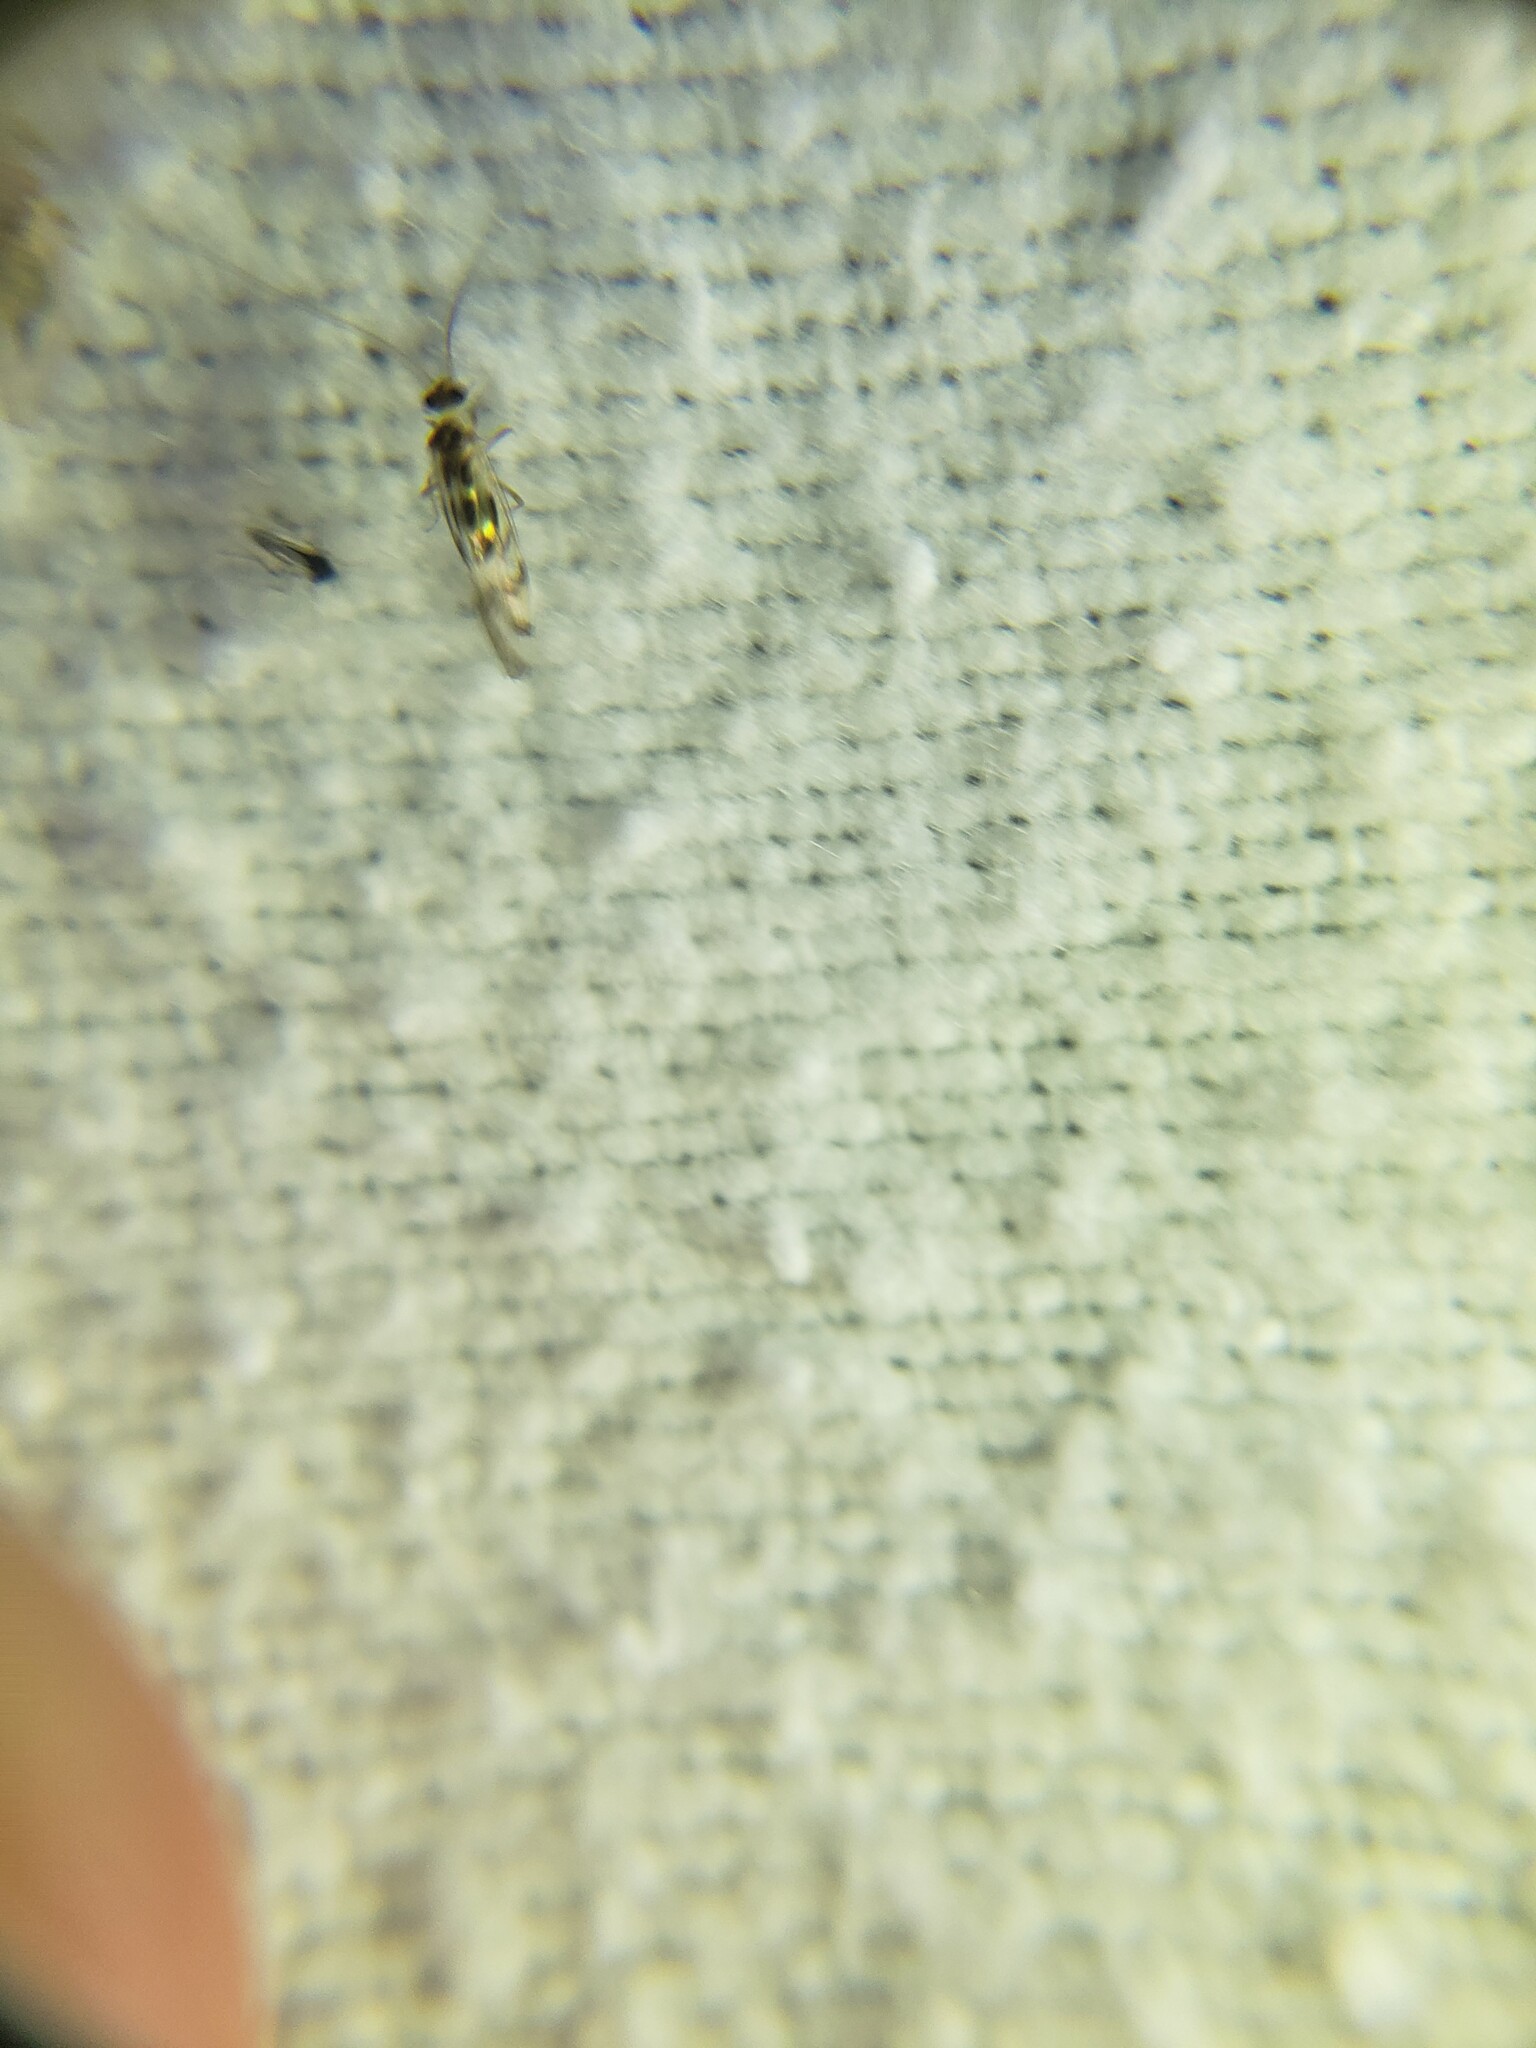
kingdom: Animalia
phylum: Arthropoda
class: Insecta
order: Psocodea
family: Stenopsocidae
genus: Graphopsocus
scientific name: Graphopsocus cruciatus
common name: Lizard bark louse
